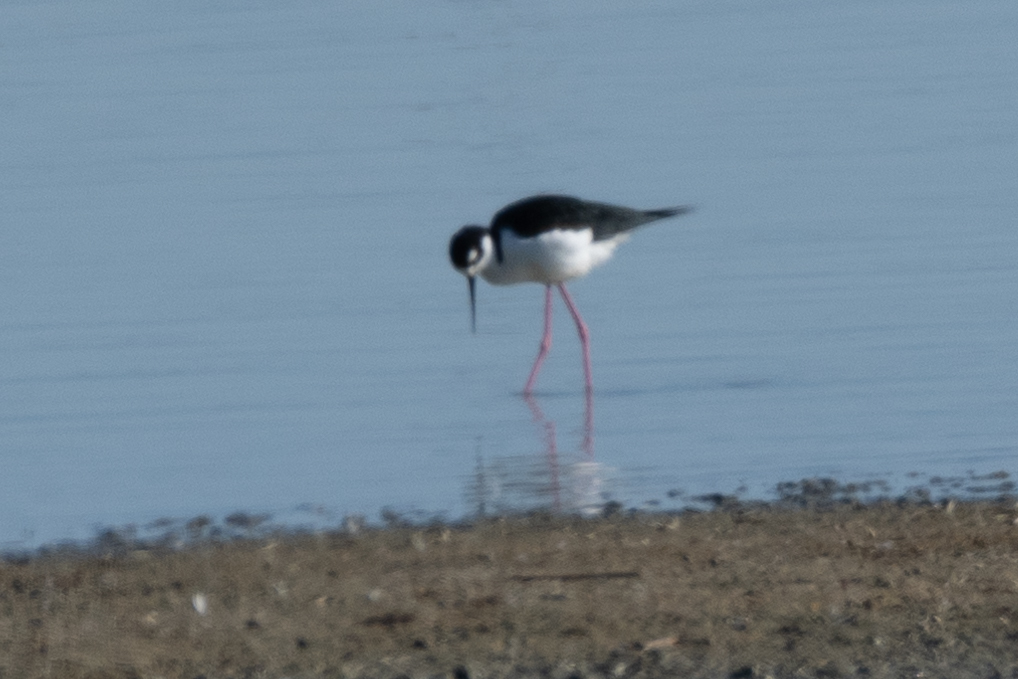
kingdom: Animalia
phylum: Chordata
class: Aves
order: Charadriiformes
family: Recurvirostridae
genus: Himantopus
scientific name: Himantopus mexicanus
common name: Black-necked stilt
